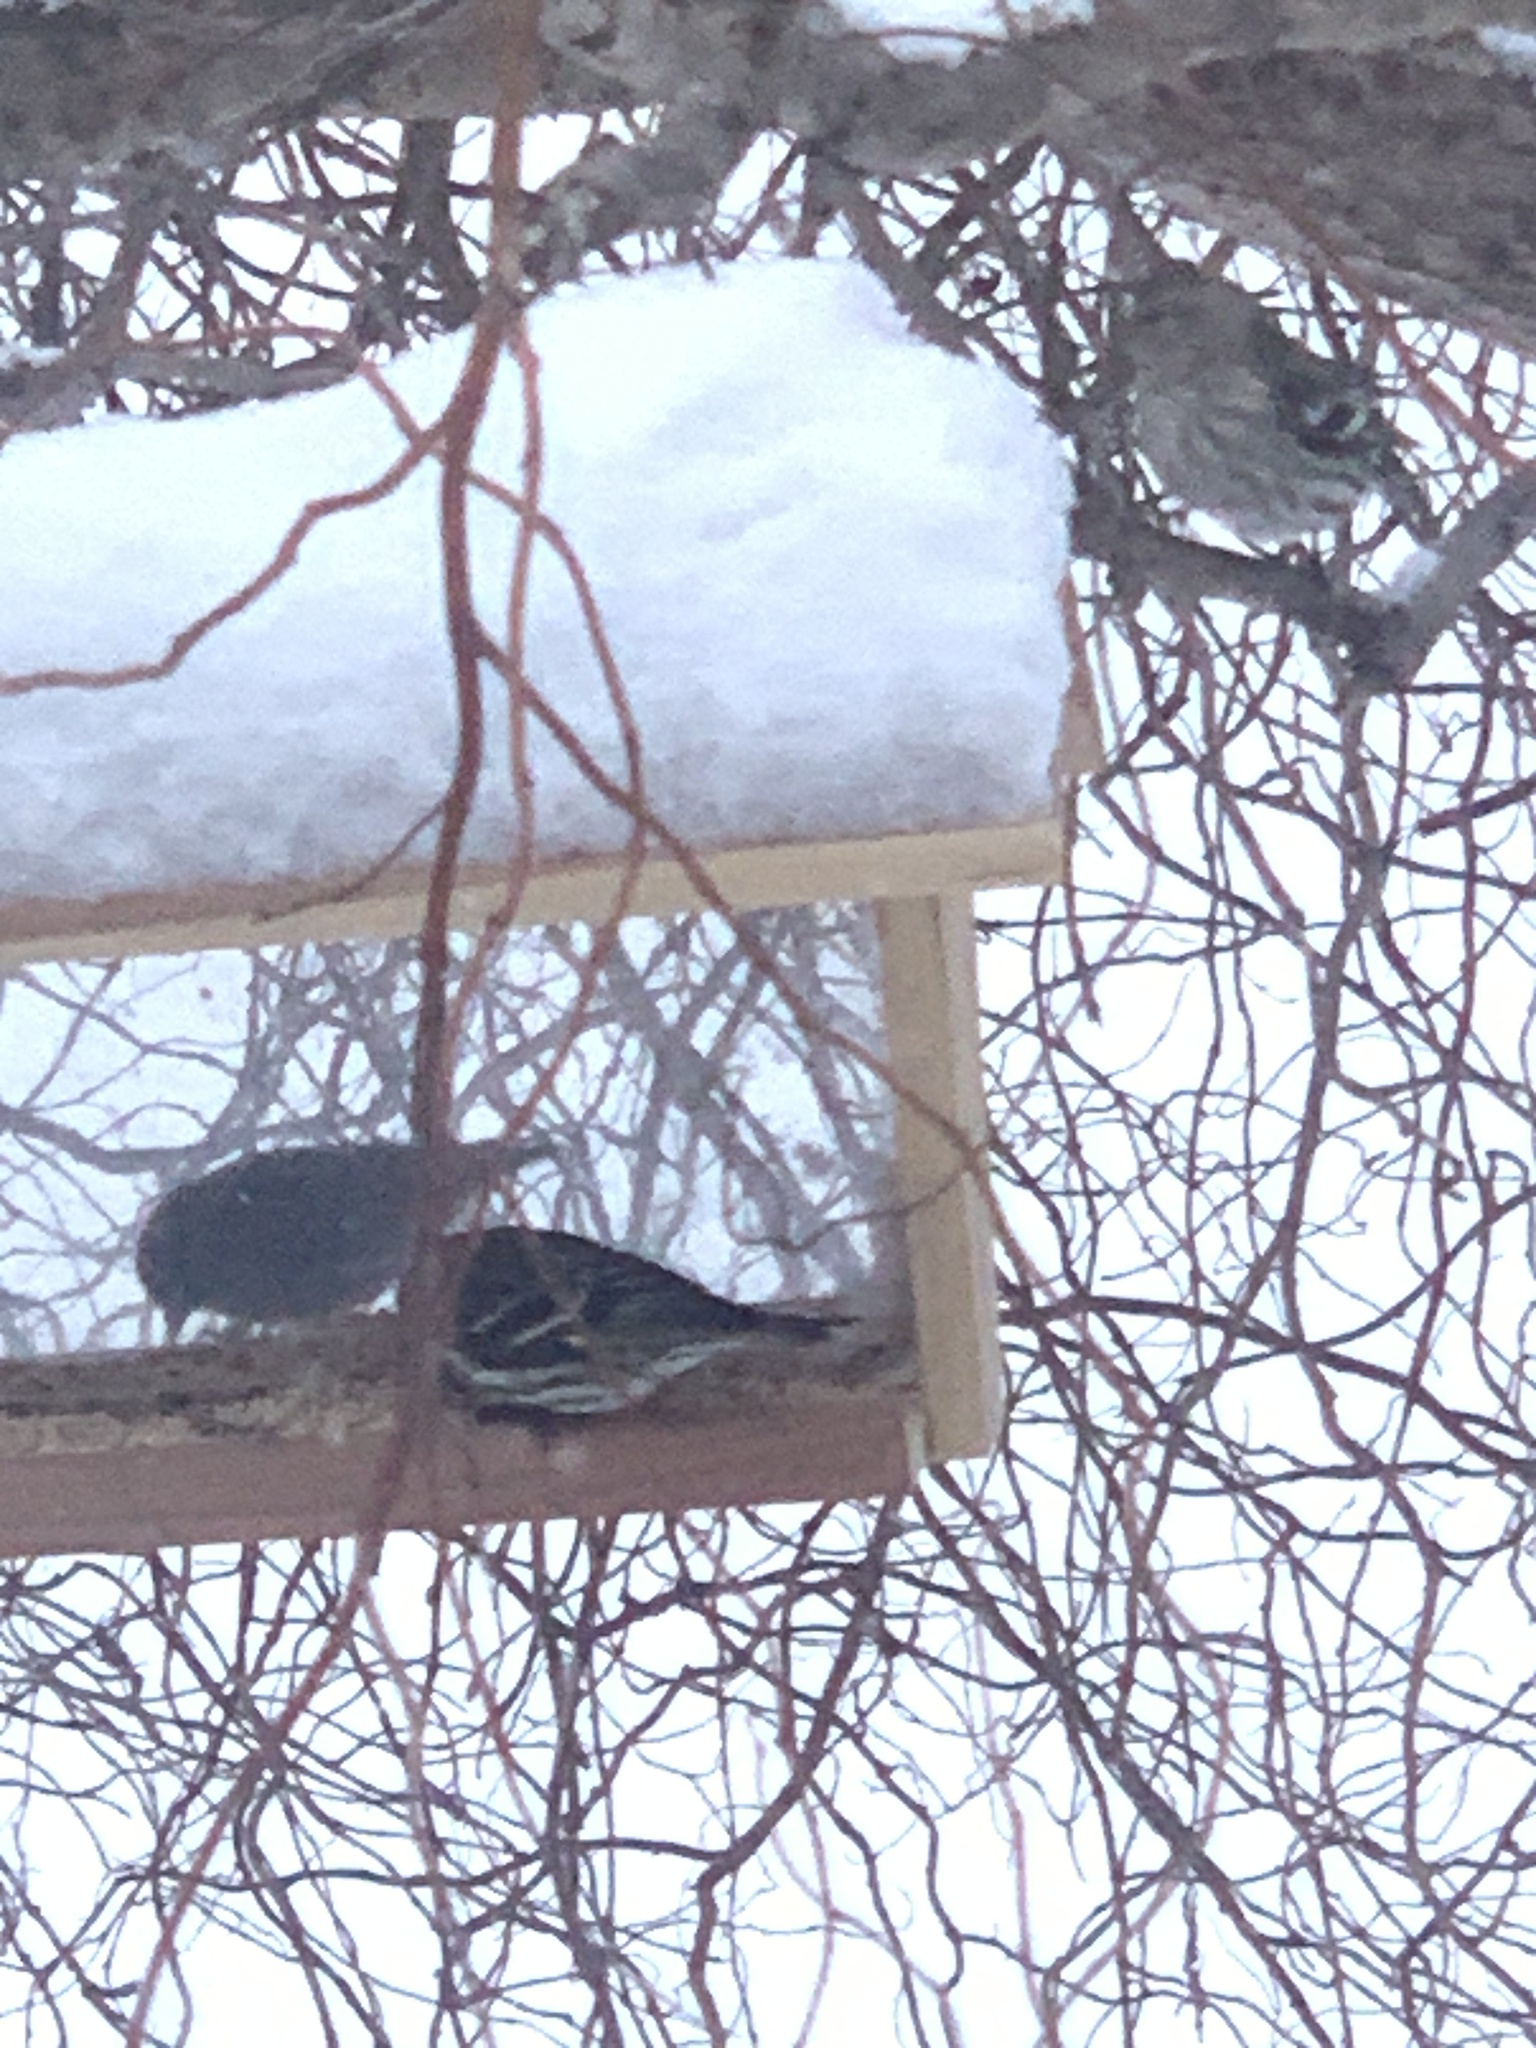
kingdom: Animalia
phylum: Chordata
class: Aves
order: Passeriformes
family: Fringillidae
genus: Spinus
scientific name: Spinus pinus
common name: Pine siskin
